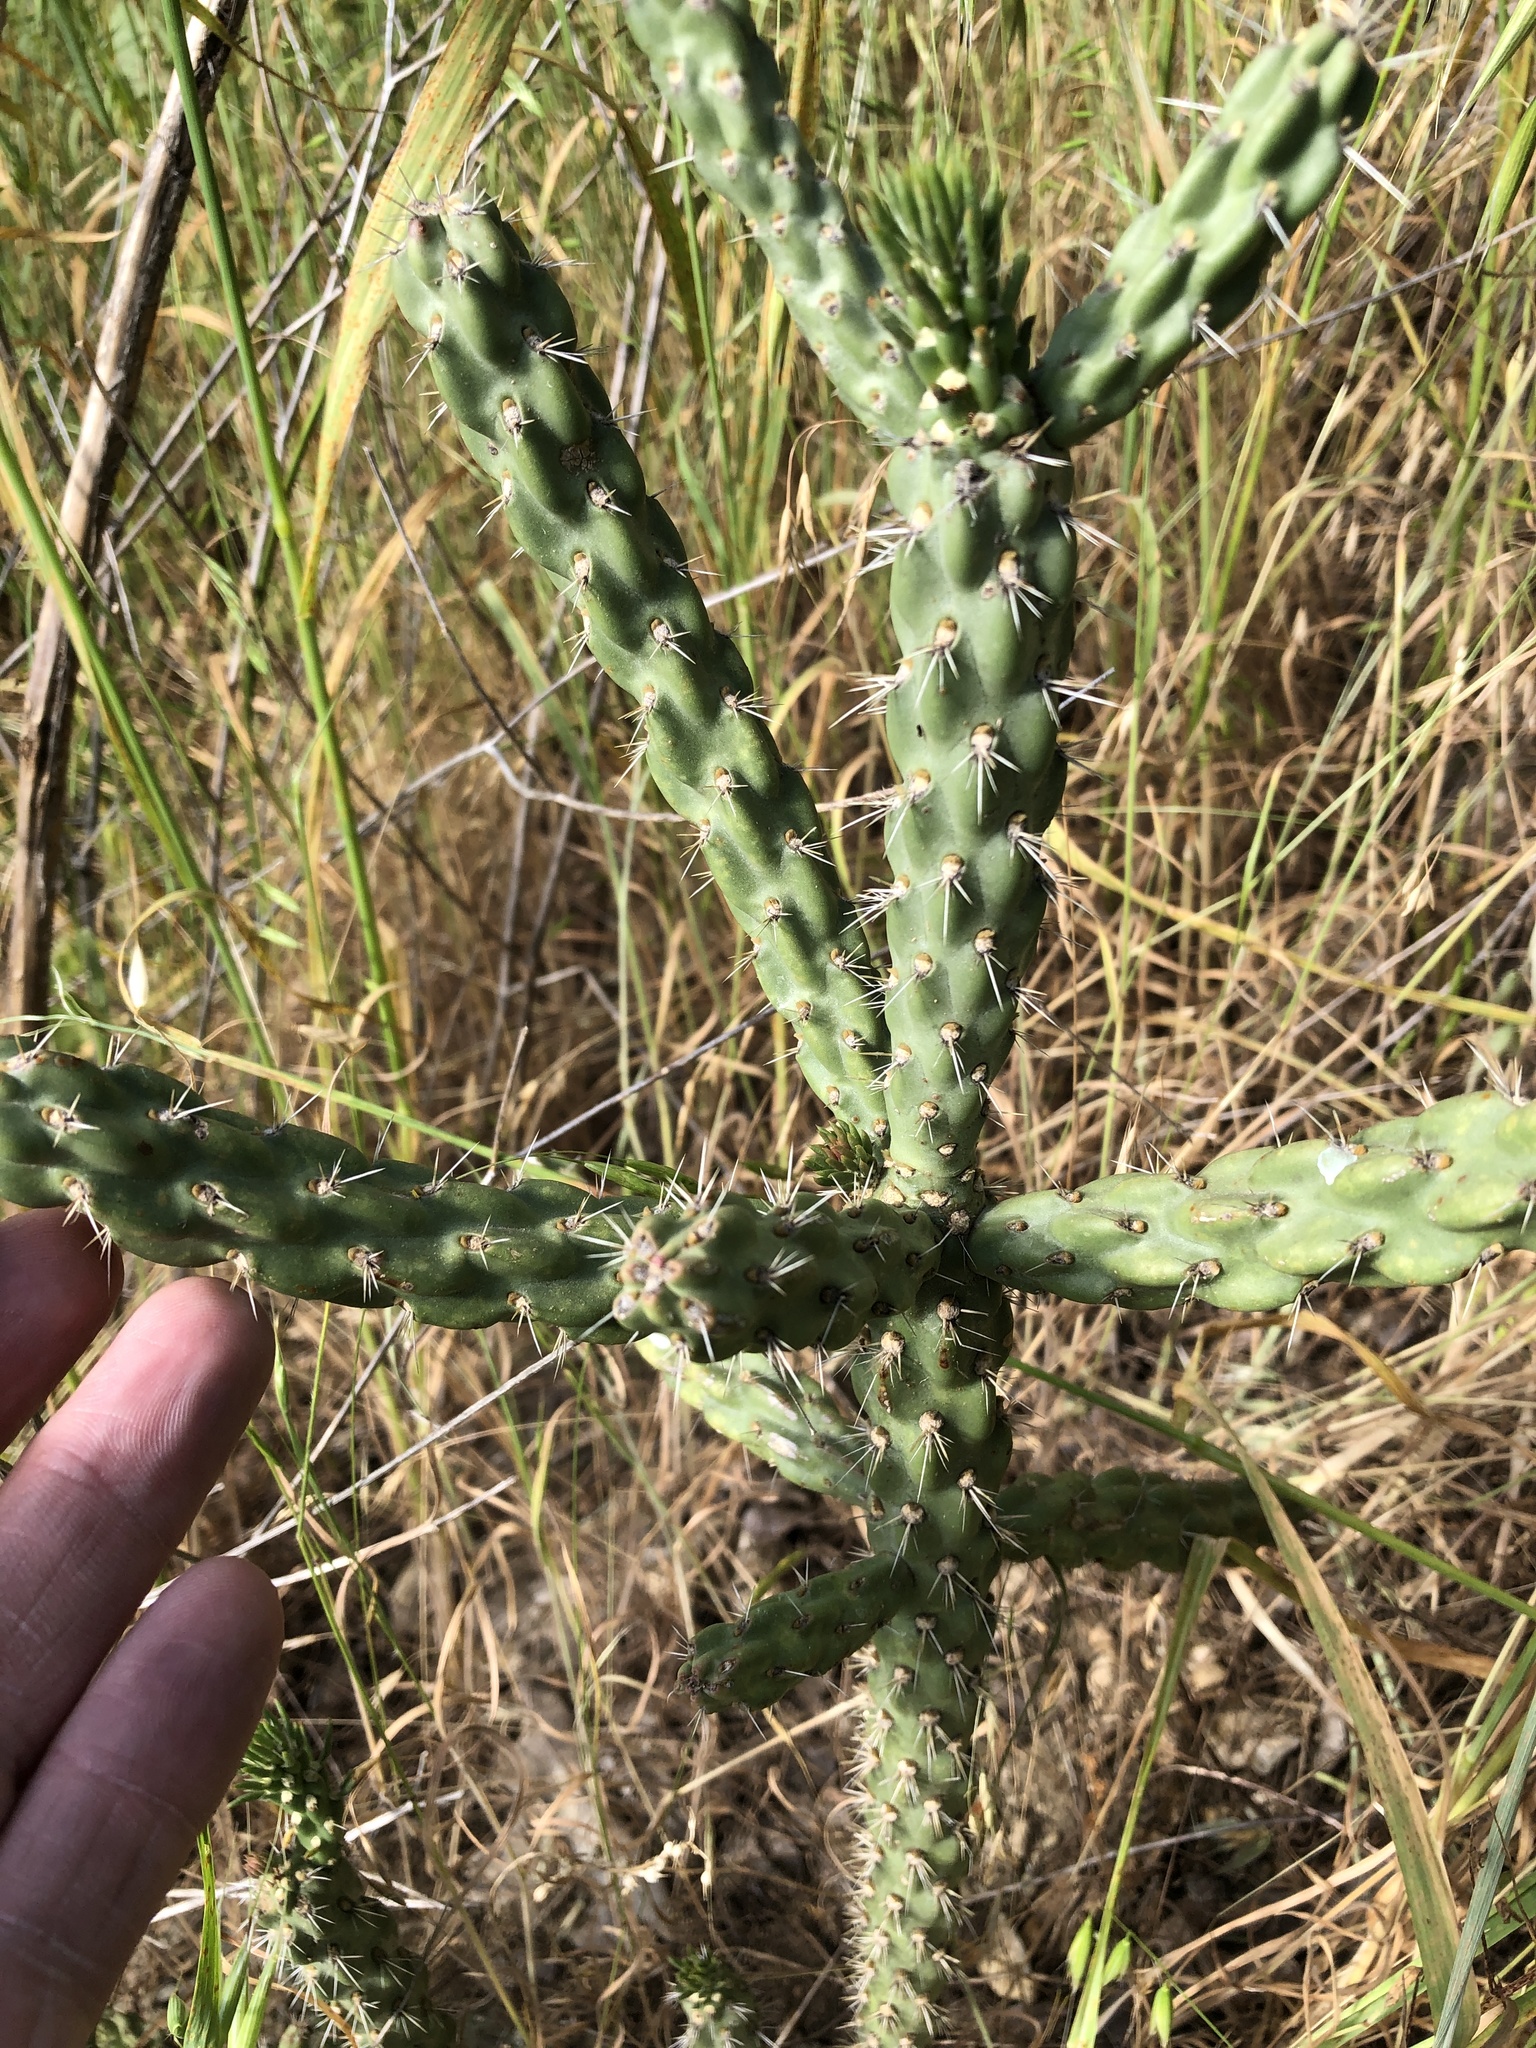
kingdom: Plantae
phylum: Tracheophyta
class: Magnoliopsida
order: Caryophyllales
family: Cactaceae
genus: Cylindropuntia
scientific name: Cylindropuntia imbricata
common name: Candelabrum cactus
